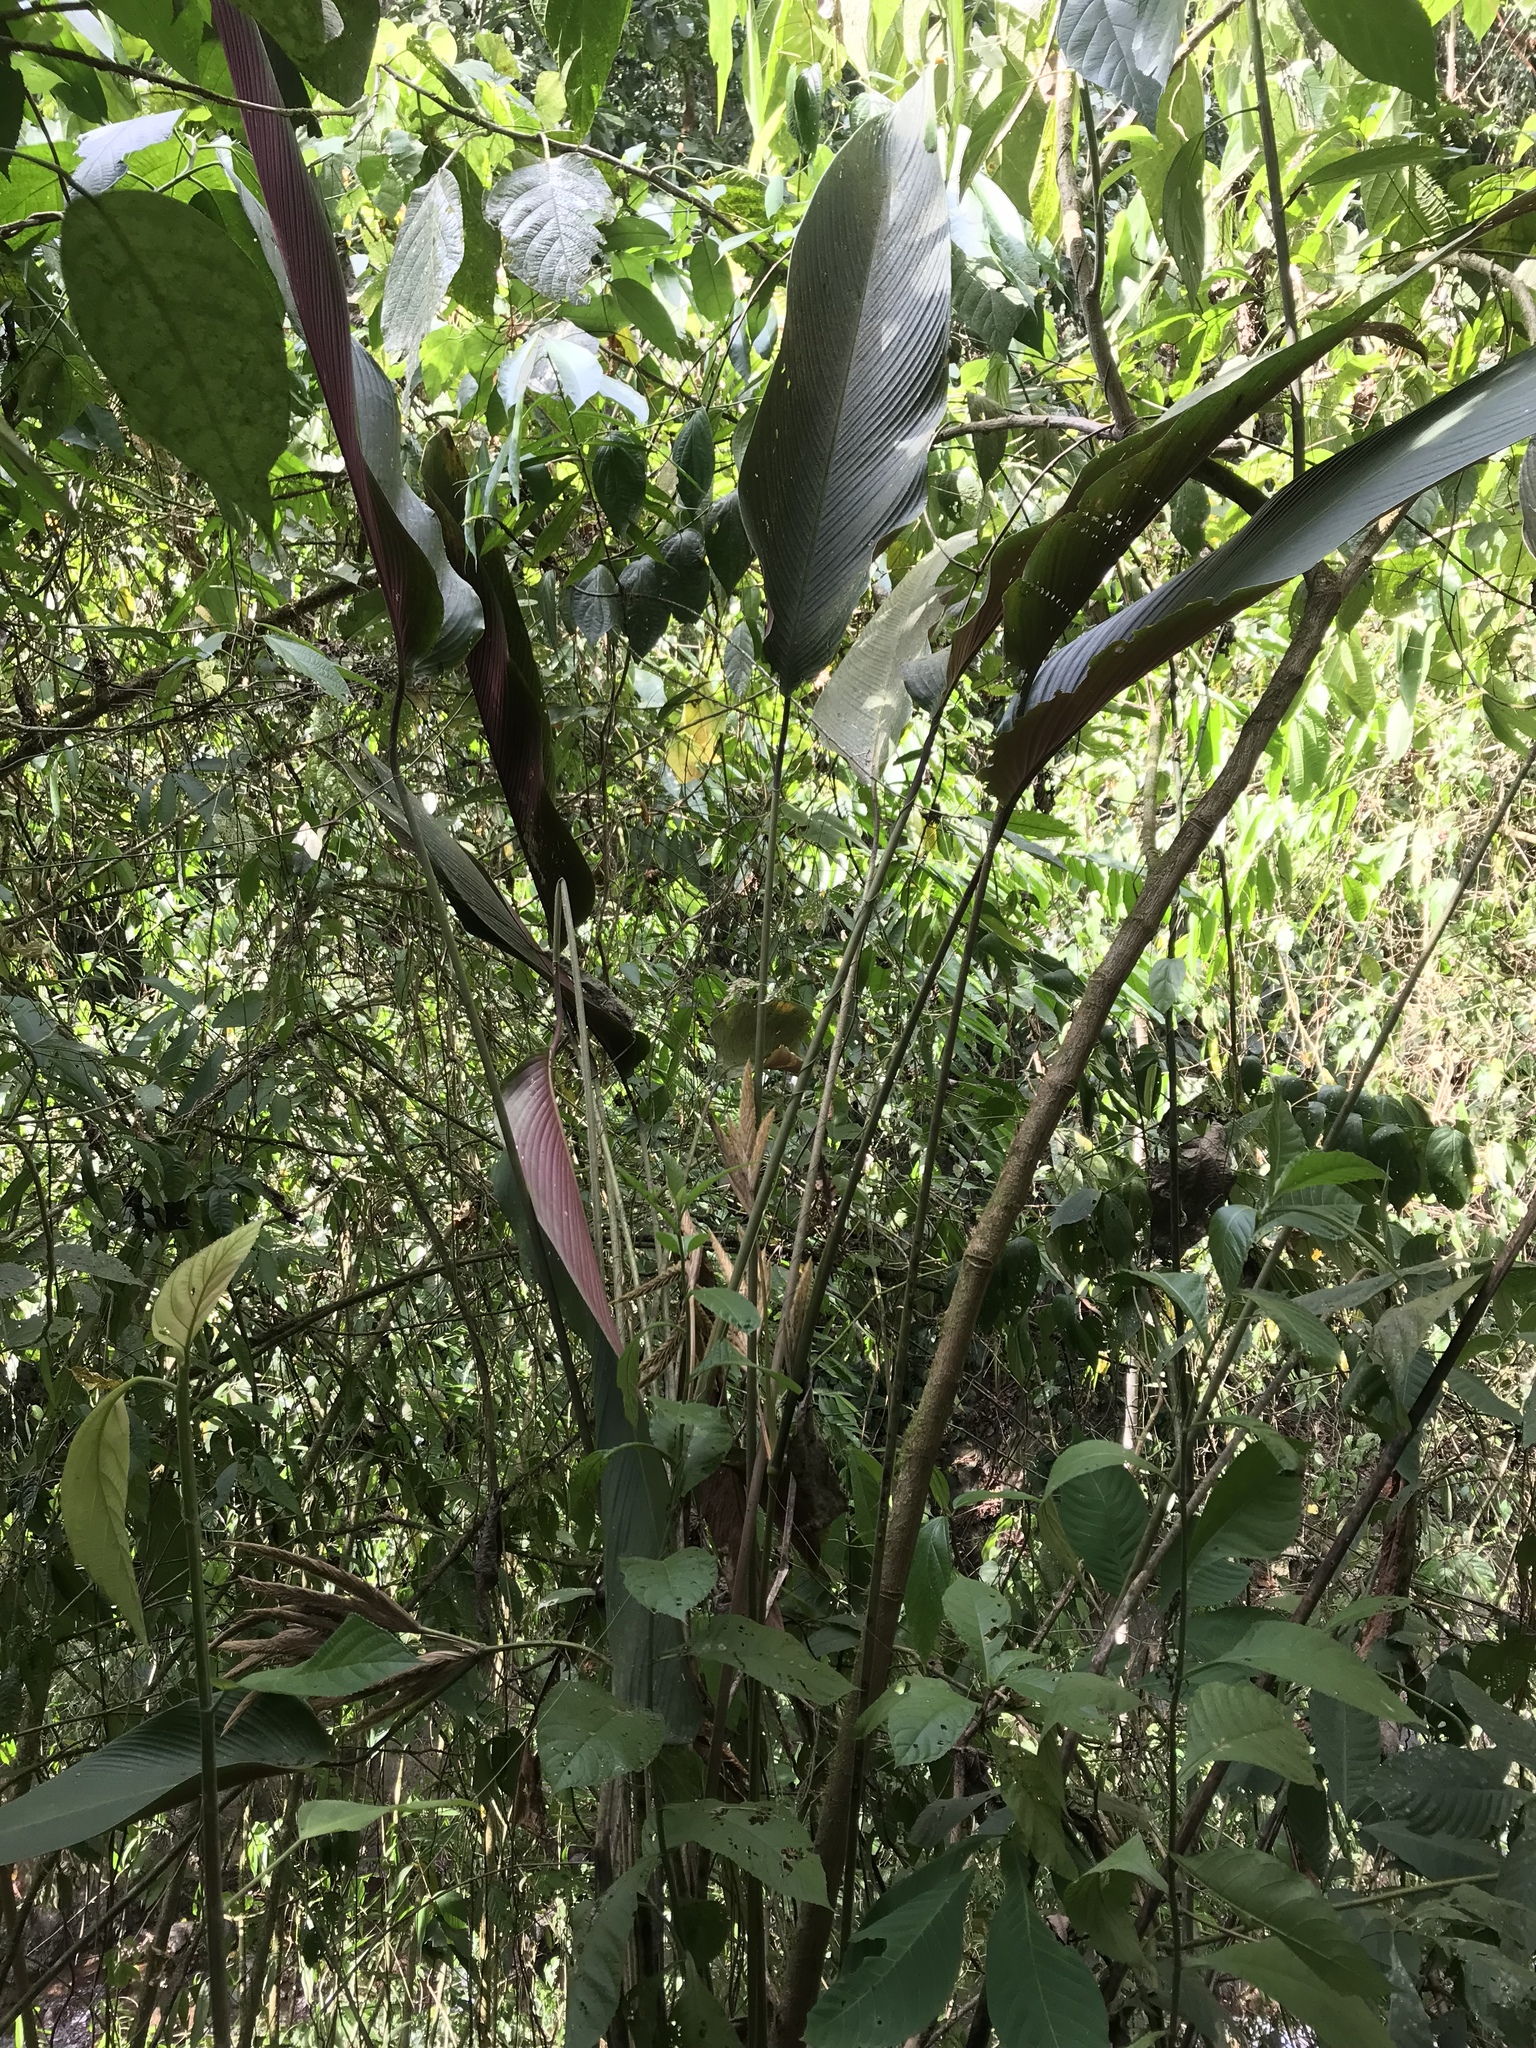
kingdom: Plantae
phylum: Tracheophyta
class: Liliopsida
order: Zingiberales
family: Marantaceae
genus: Pleiostachya
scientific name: Pleiostachya pruinosa
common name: Prayer plant
